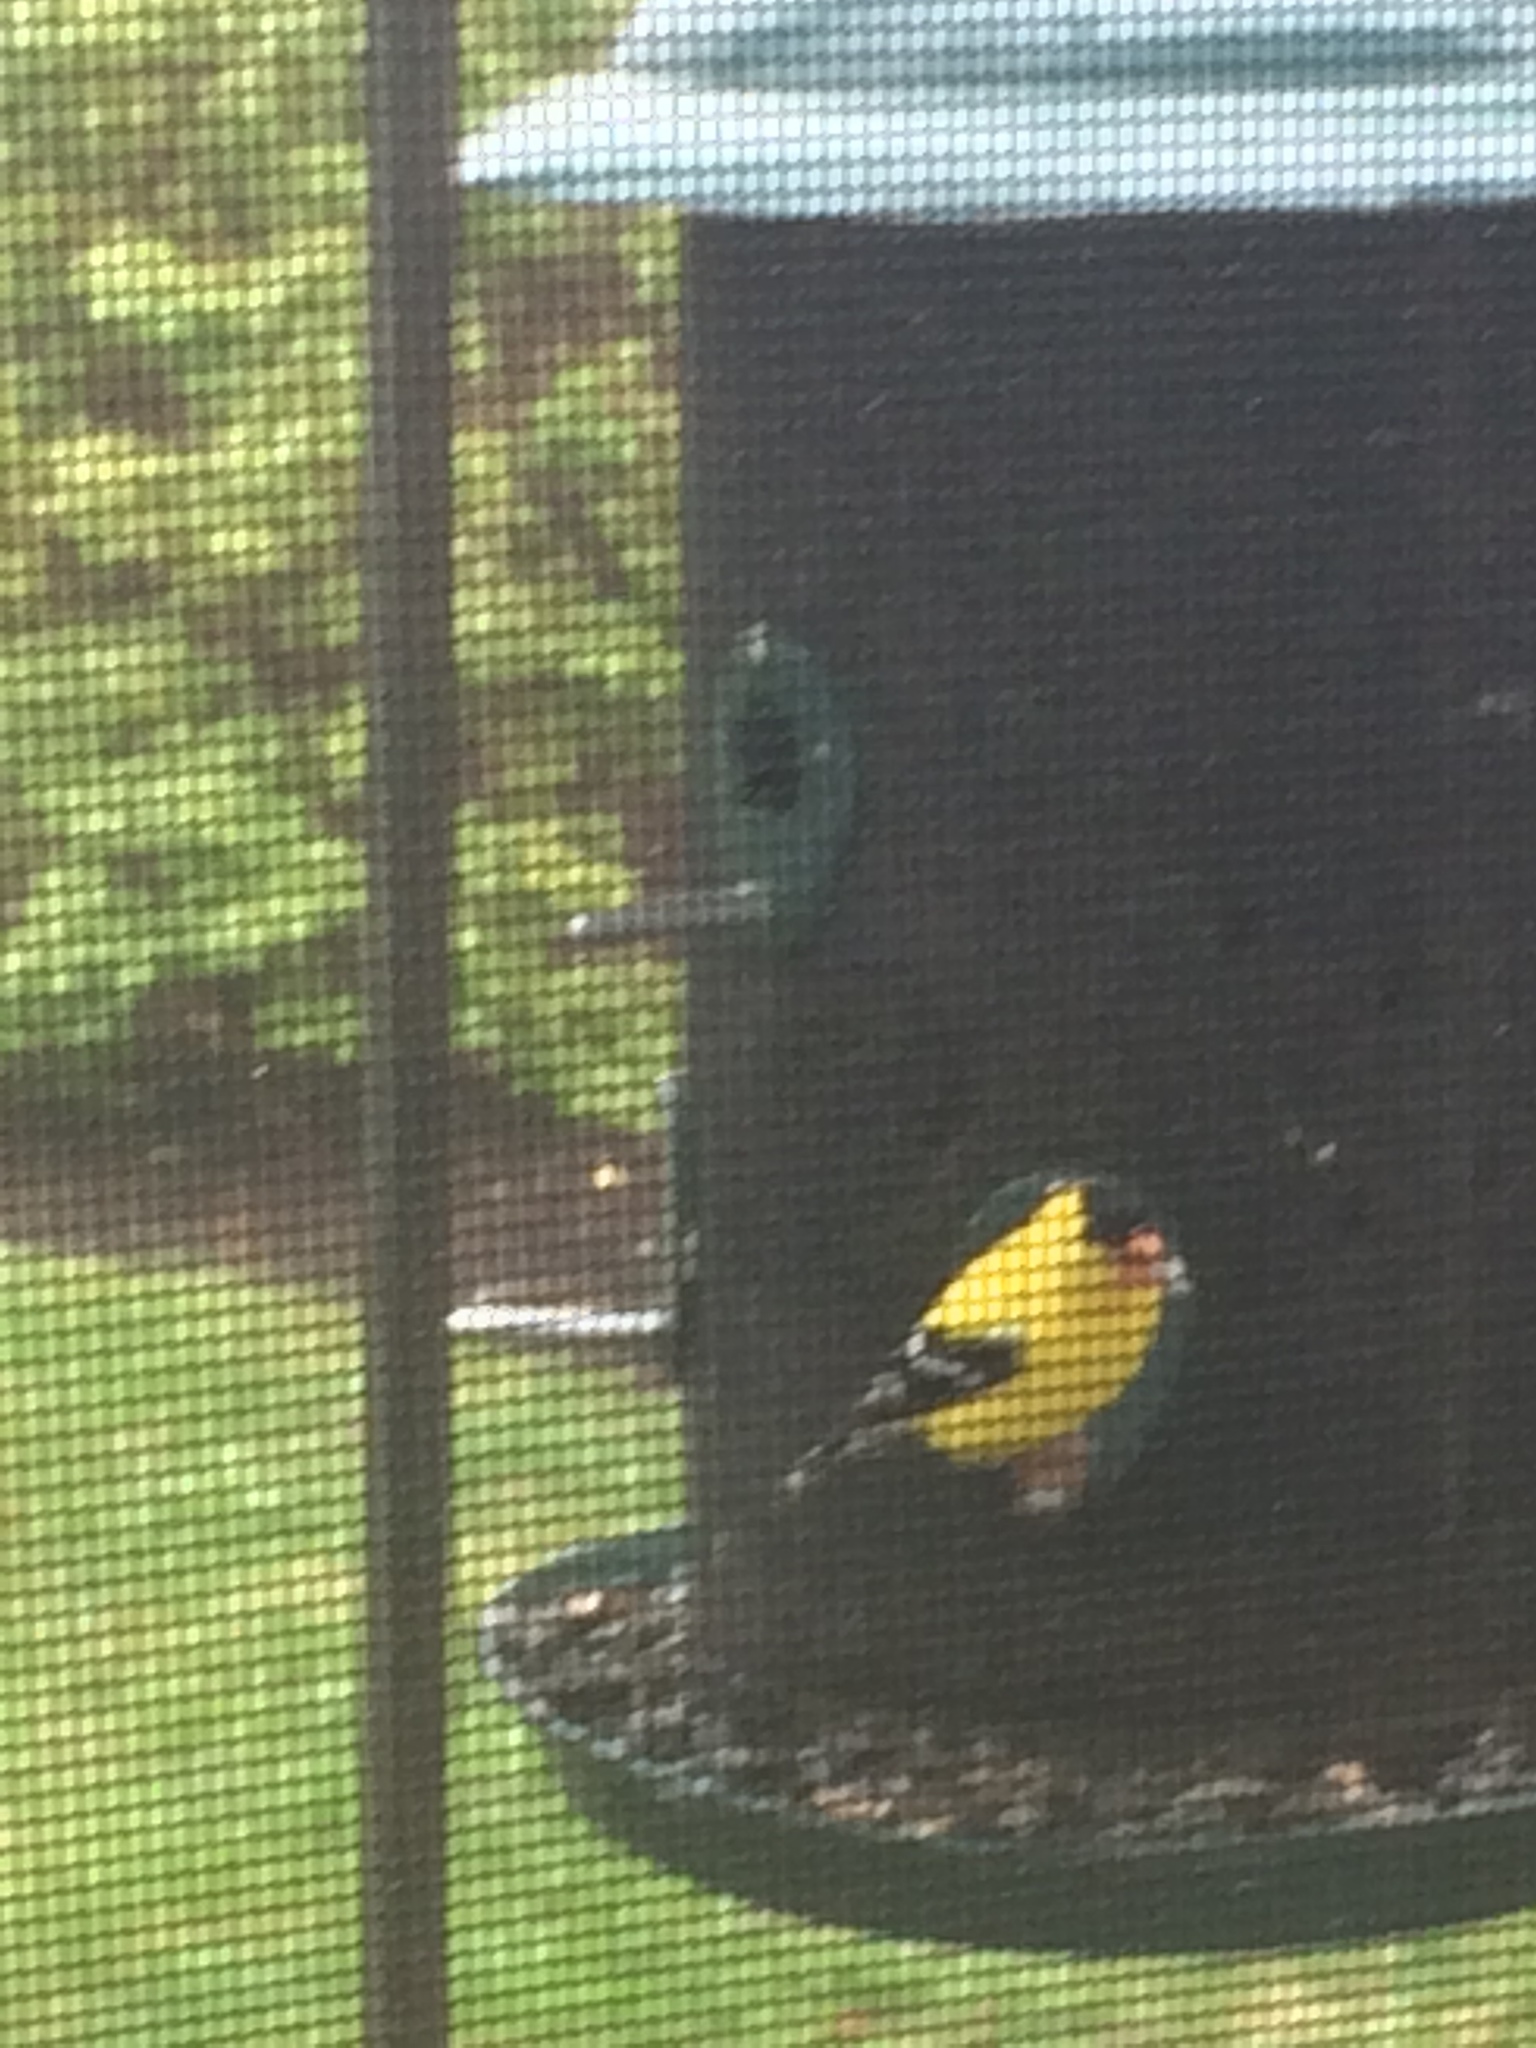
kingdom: Animalia
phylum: Chordata
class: Aves
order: Passeriformes
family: Fringillidae
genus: Spinus
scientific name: Spinus tristis
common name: American goldfinch
